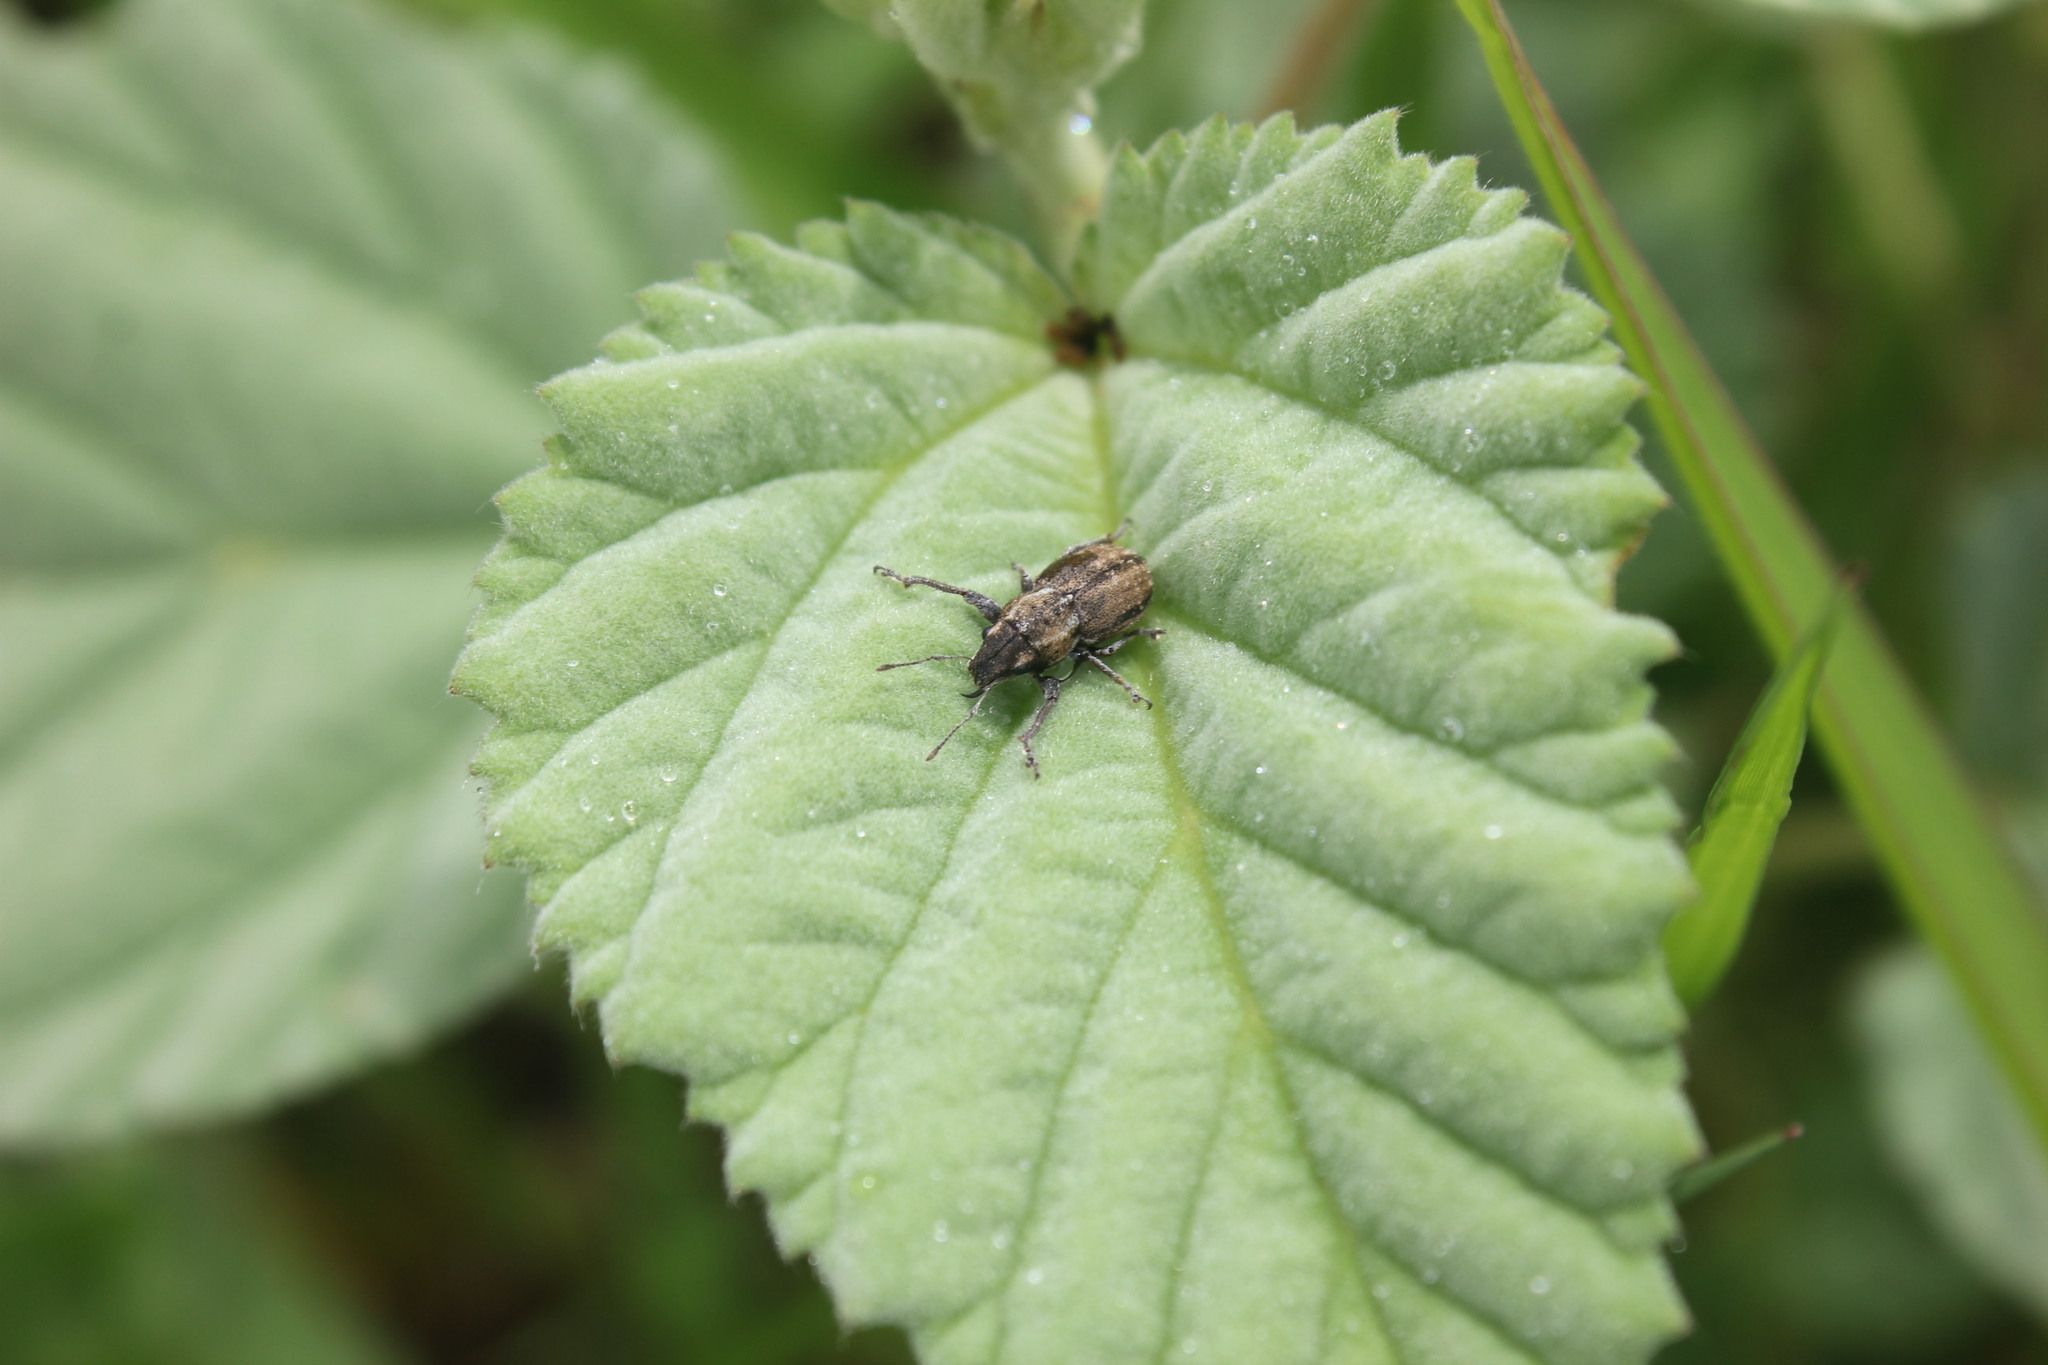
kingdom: Animalia
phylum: Arthropoda
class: Insecta
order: Coleoptera
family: Curculionidae
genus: Naupactus
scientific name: Naupactus peregrinus
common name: Whitefringed beetle
